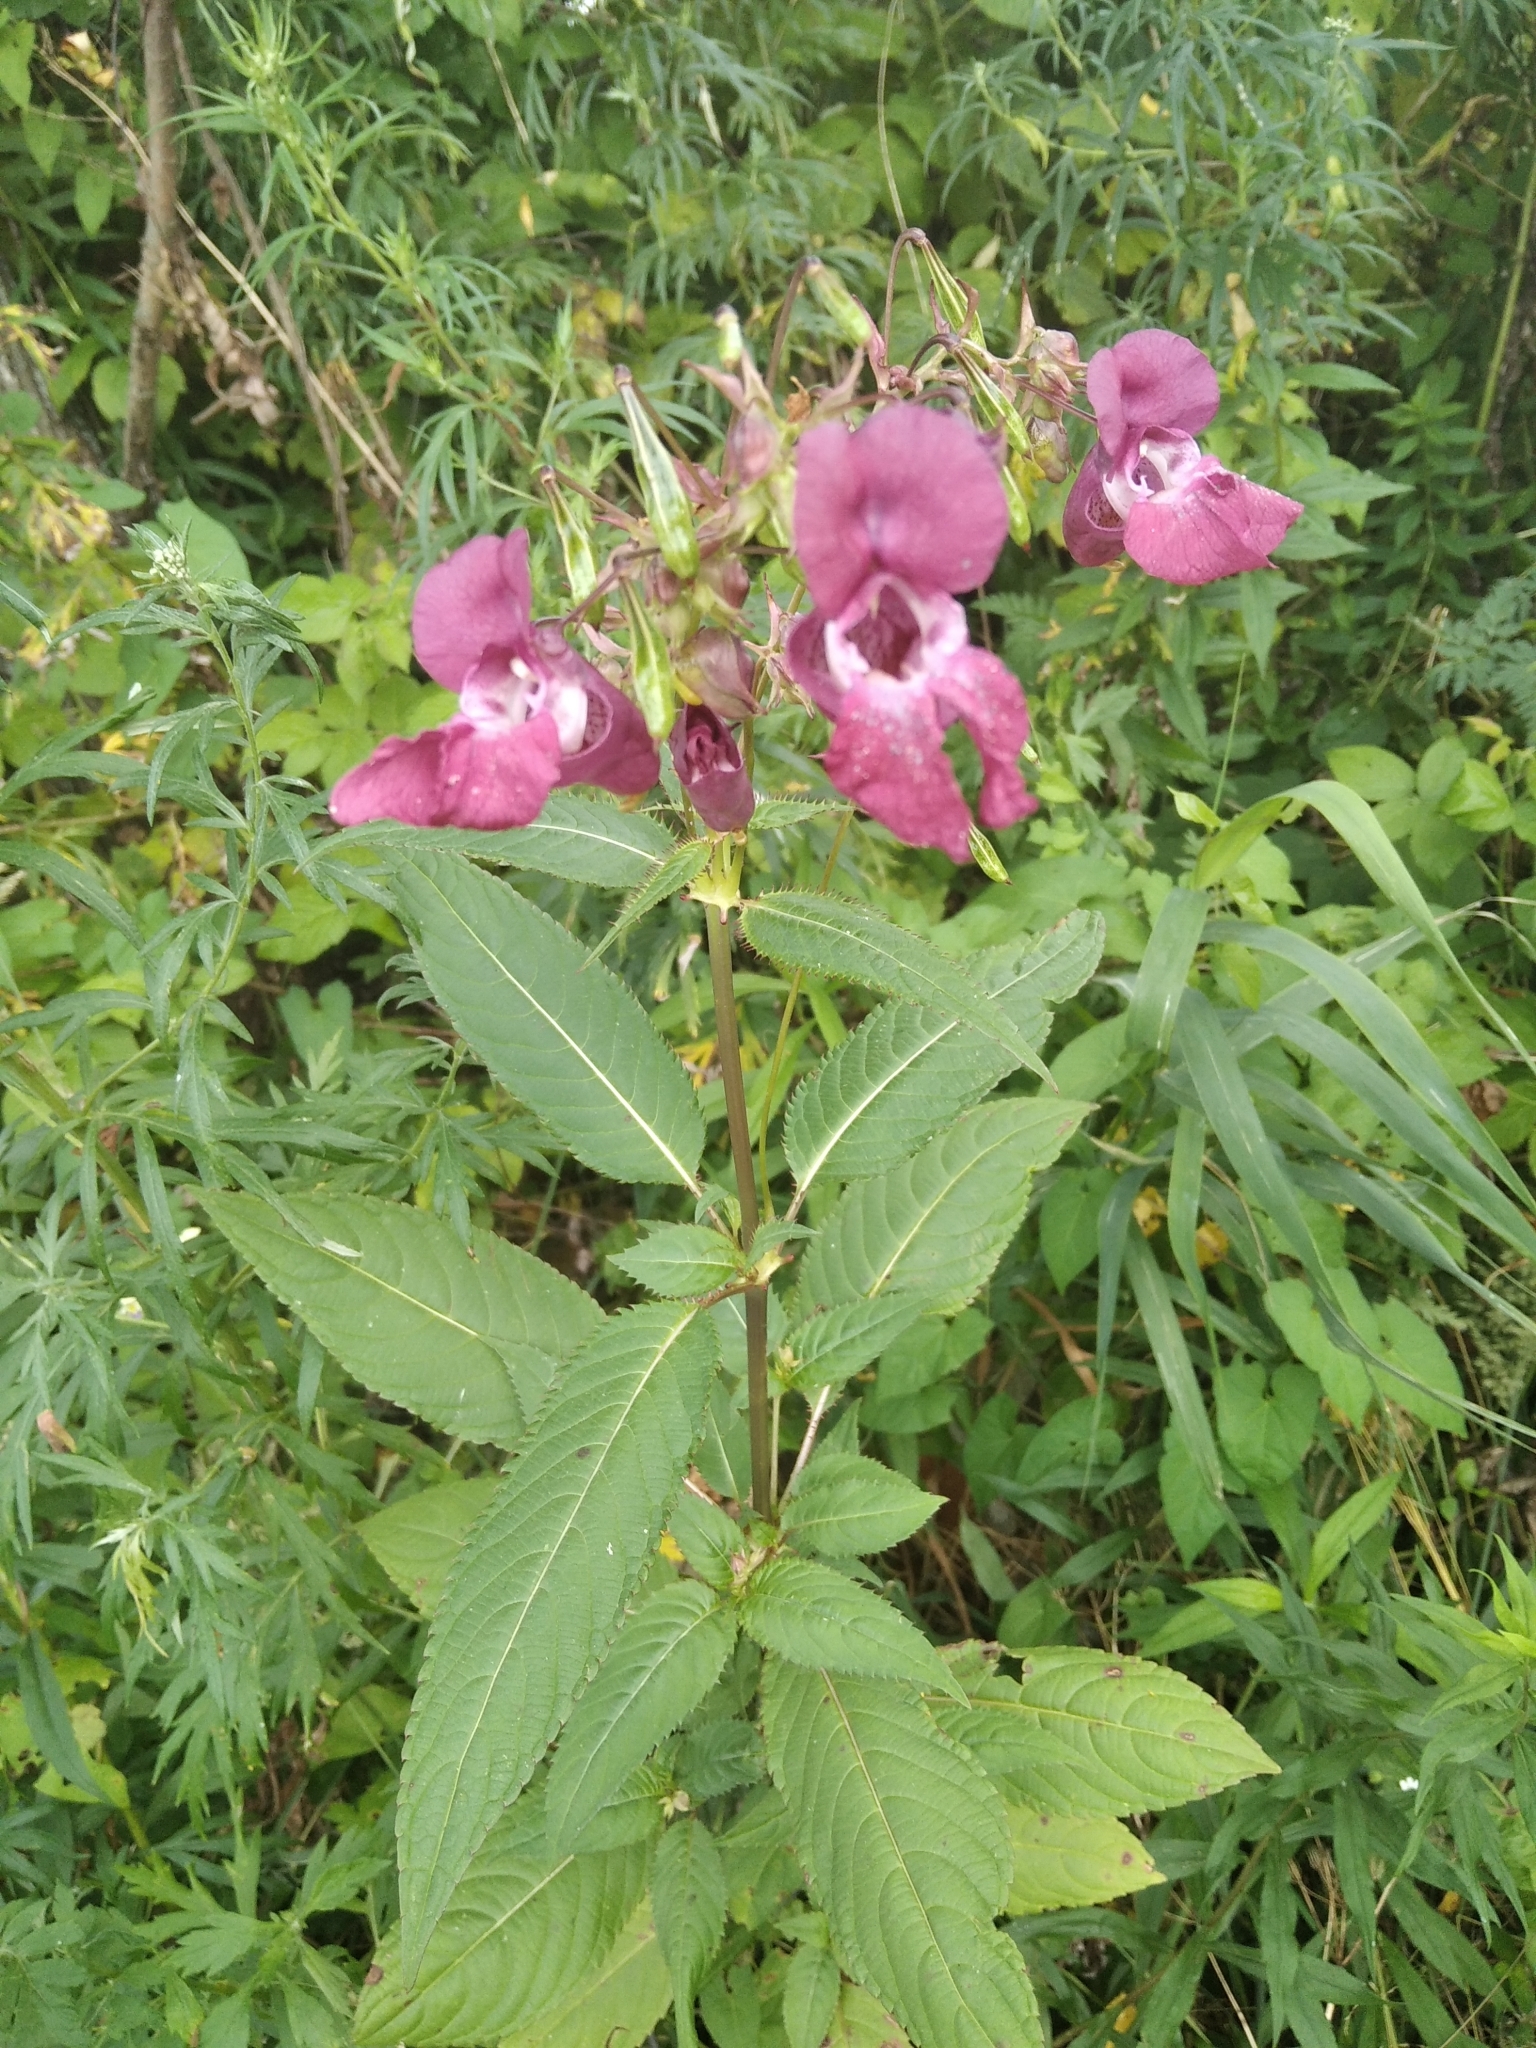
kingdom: Plantae
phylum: Tracheophyta
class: Magnoliopsida
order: Ericales
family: Balsaminaceae
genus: Impatiens
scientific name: Impatiens glandulifera
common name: Himalayan balsam
